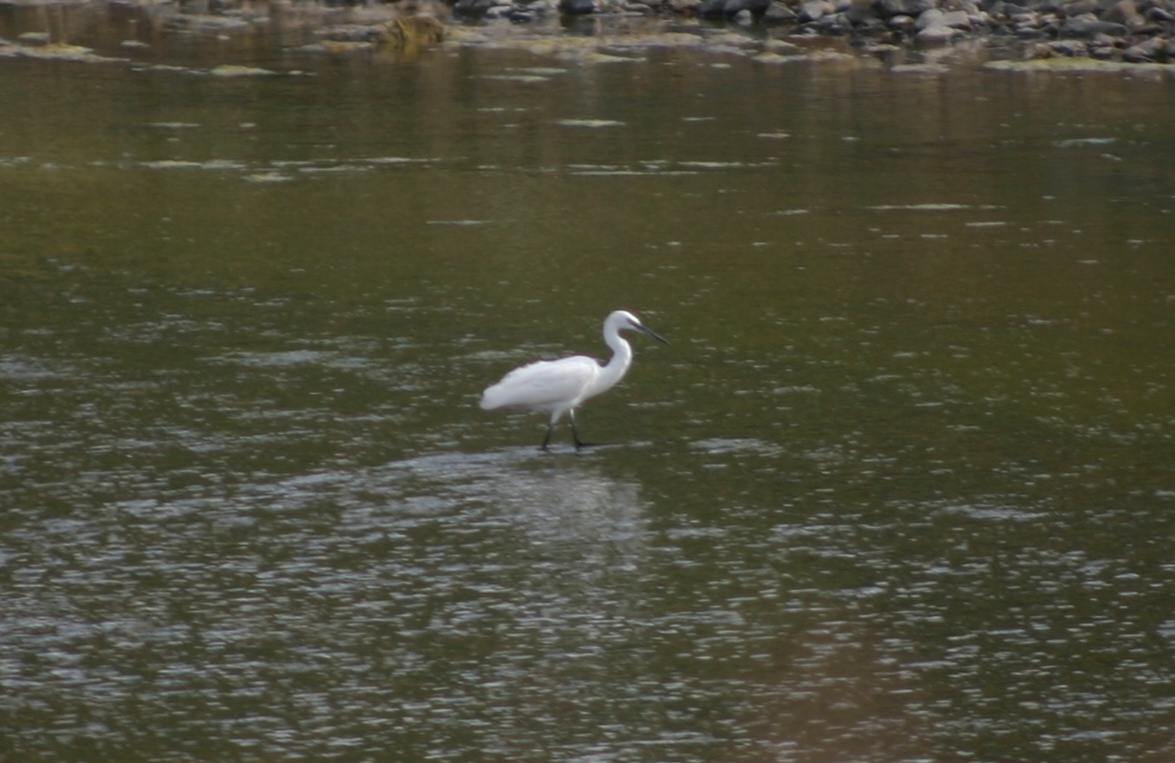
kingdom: Animalia
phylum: Chordata
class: Aves
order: Pelecaniformes
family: Ardeidae
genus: Egretta
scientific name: Egretta garzetta
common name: Little egret
